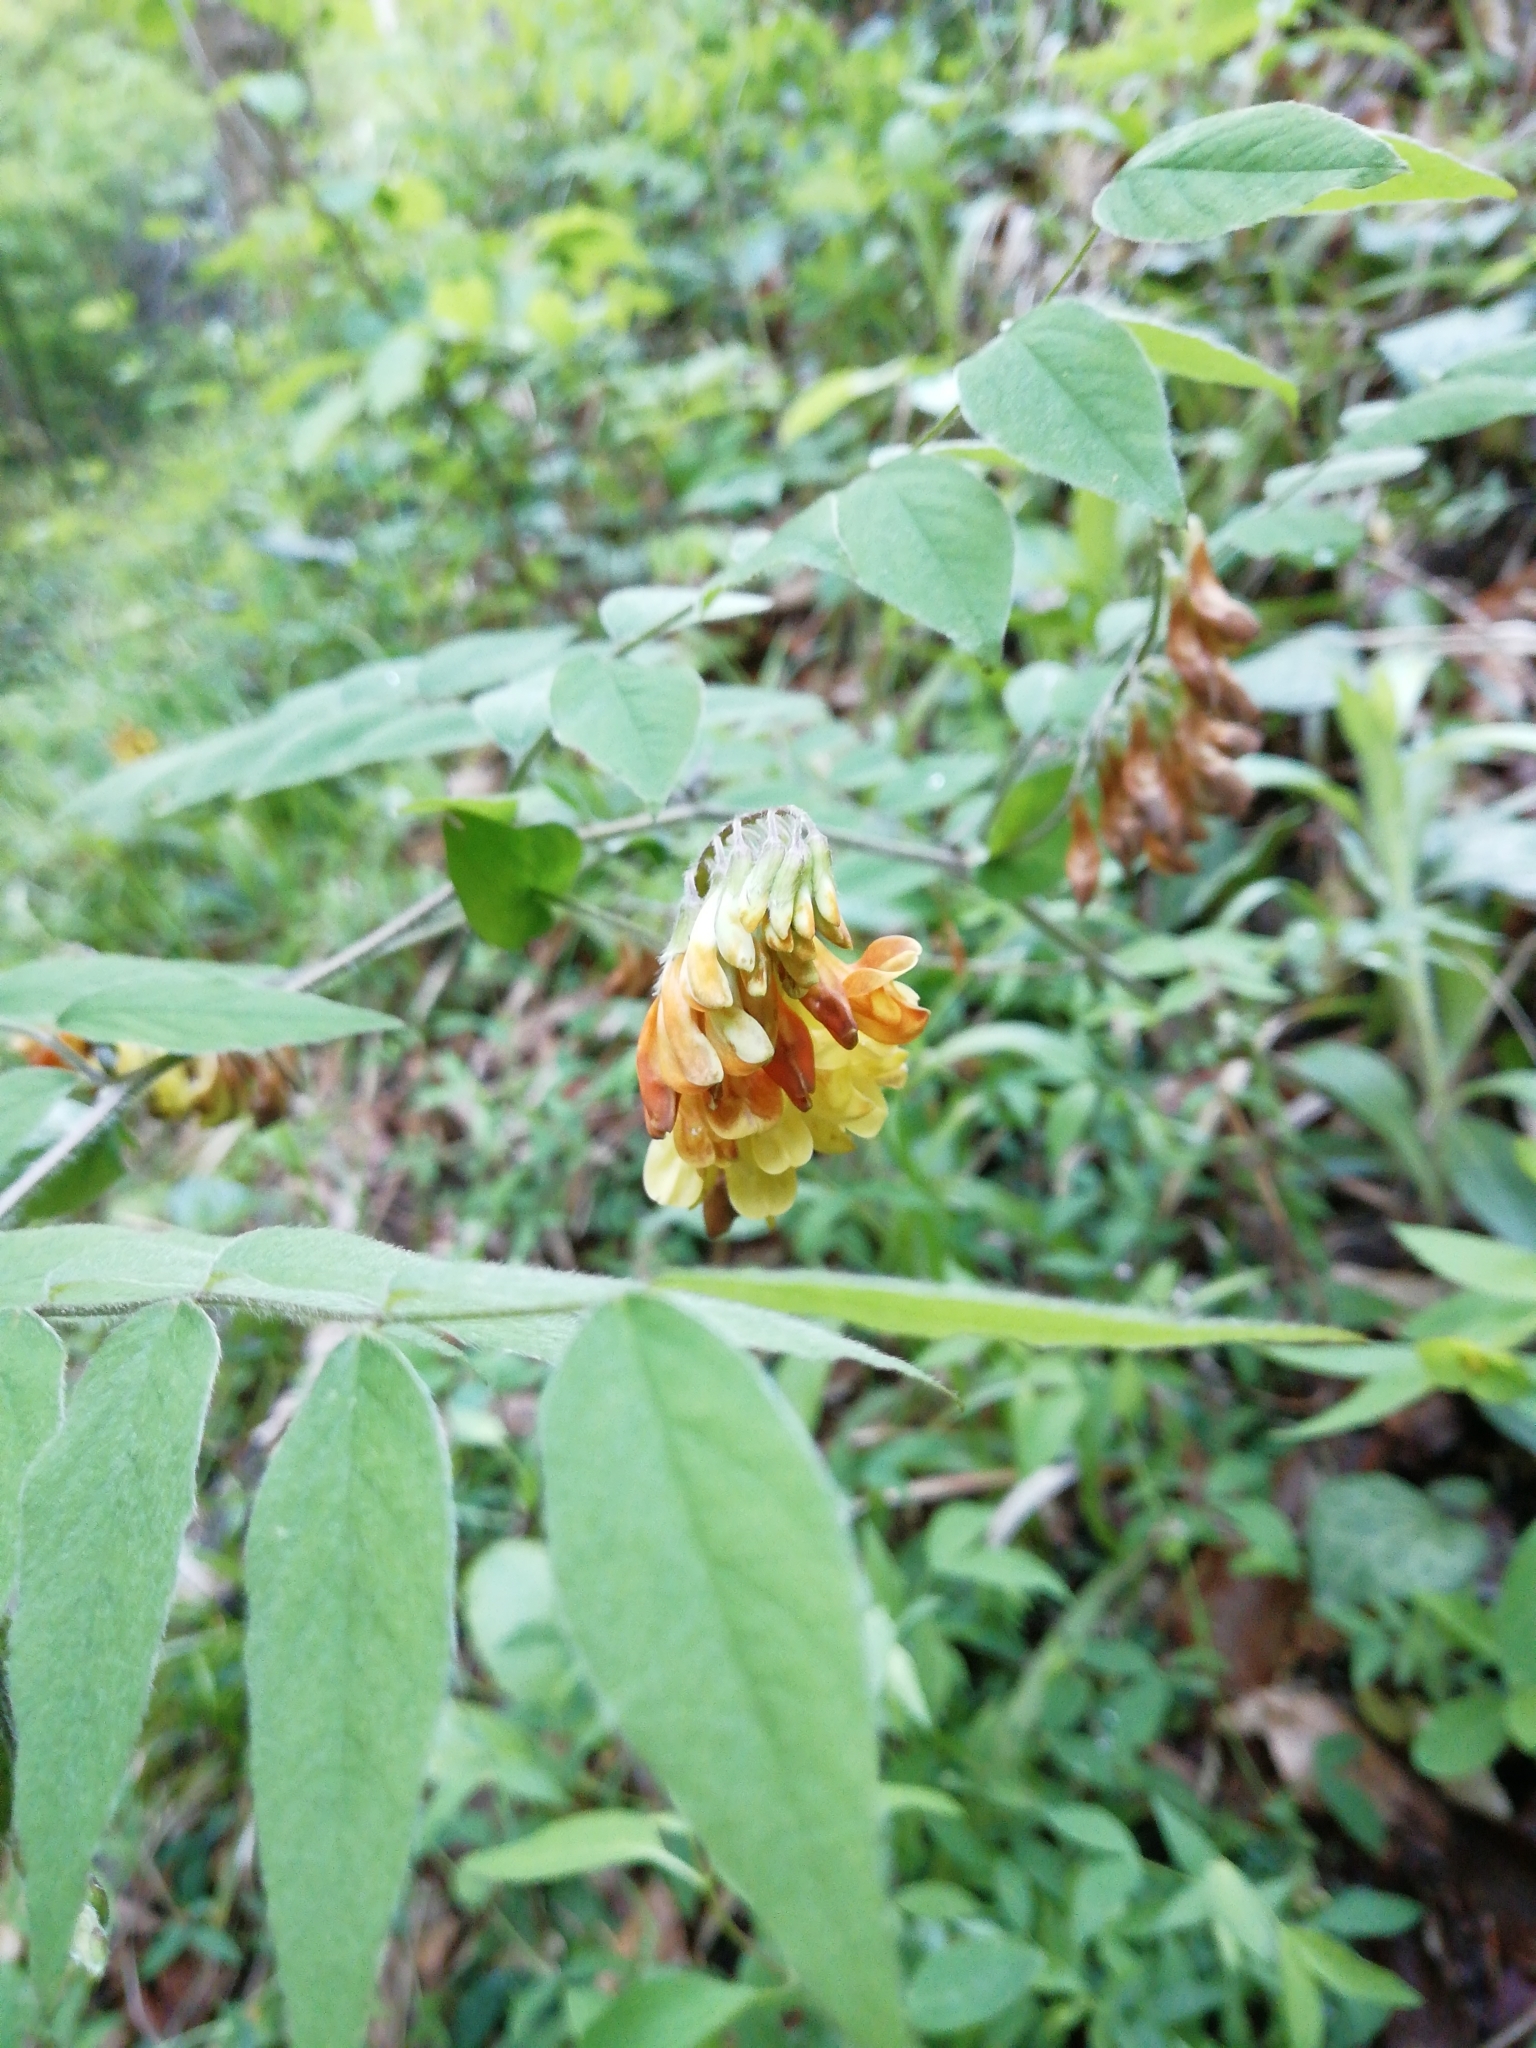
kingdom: Plantae
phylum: Tracheophyta
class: Magnoliopsida
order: Fabales
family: Fabaceae
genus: Vicia
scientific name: Vicia crocea
